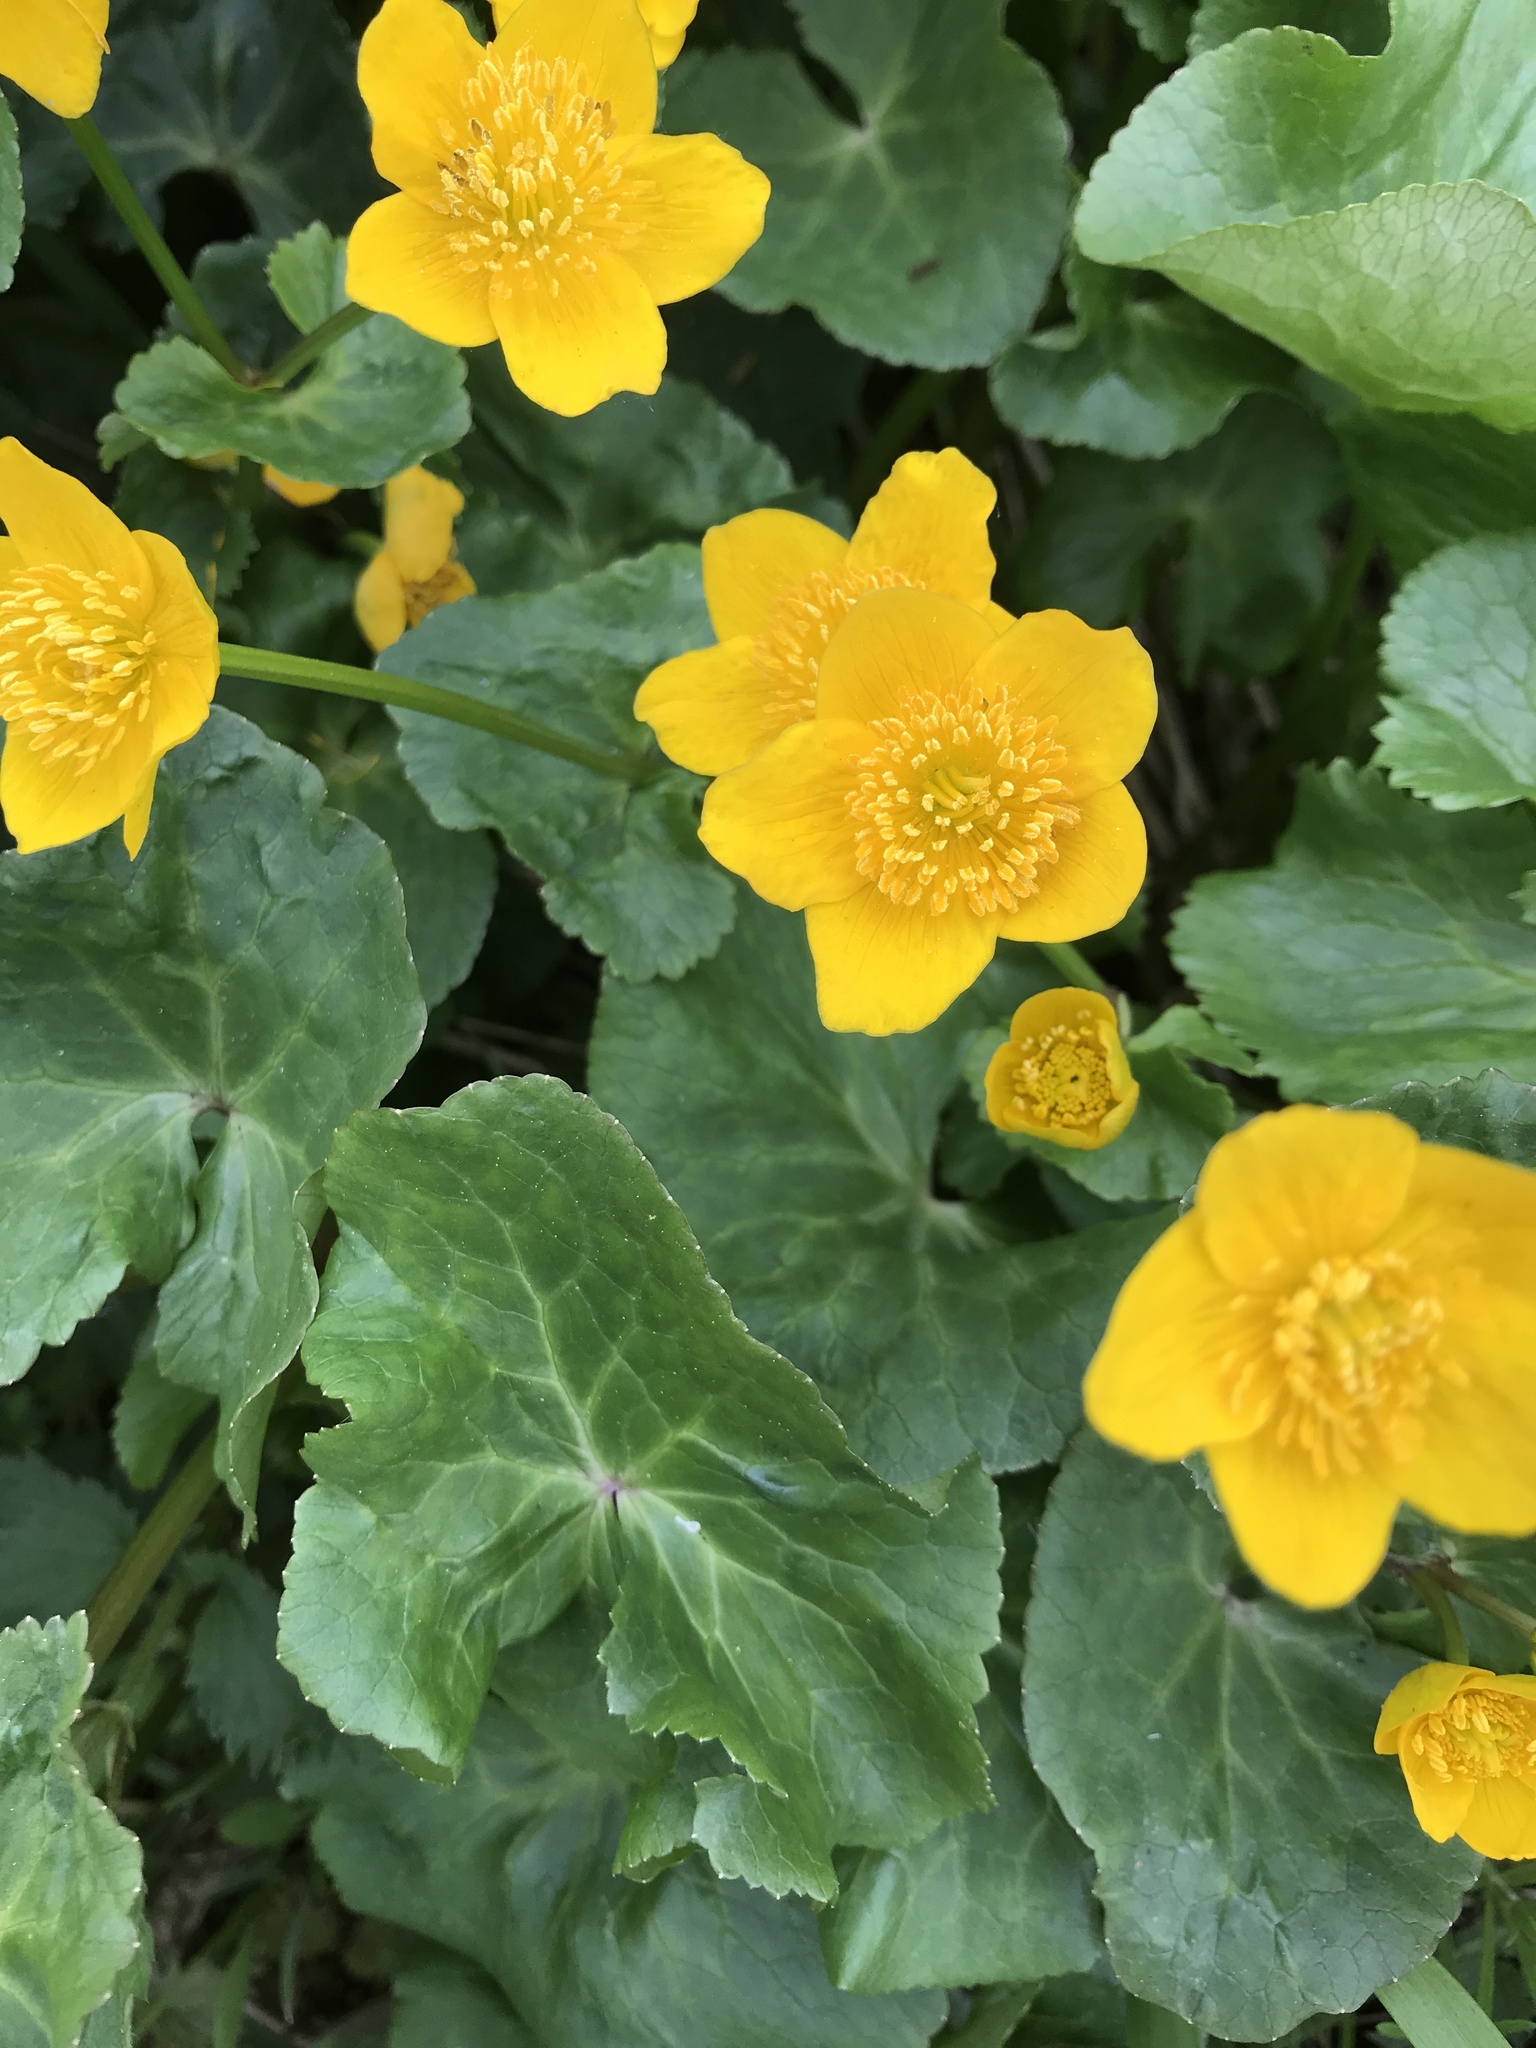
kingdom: Plantae
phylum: Tracheophyta
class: Magnoliopsida
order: Ranunculales
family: Ranunculaceae
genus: Caltha
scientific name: Caltha palustris
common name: Marsh marigold
